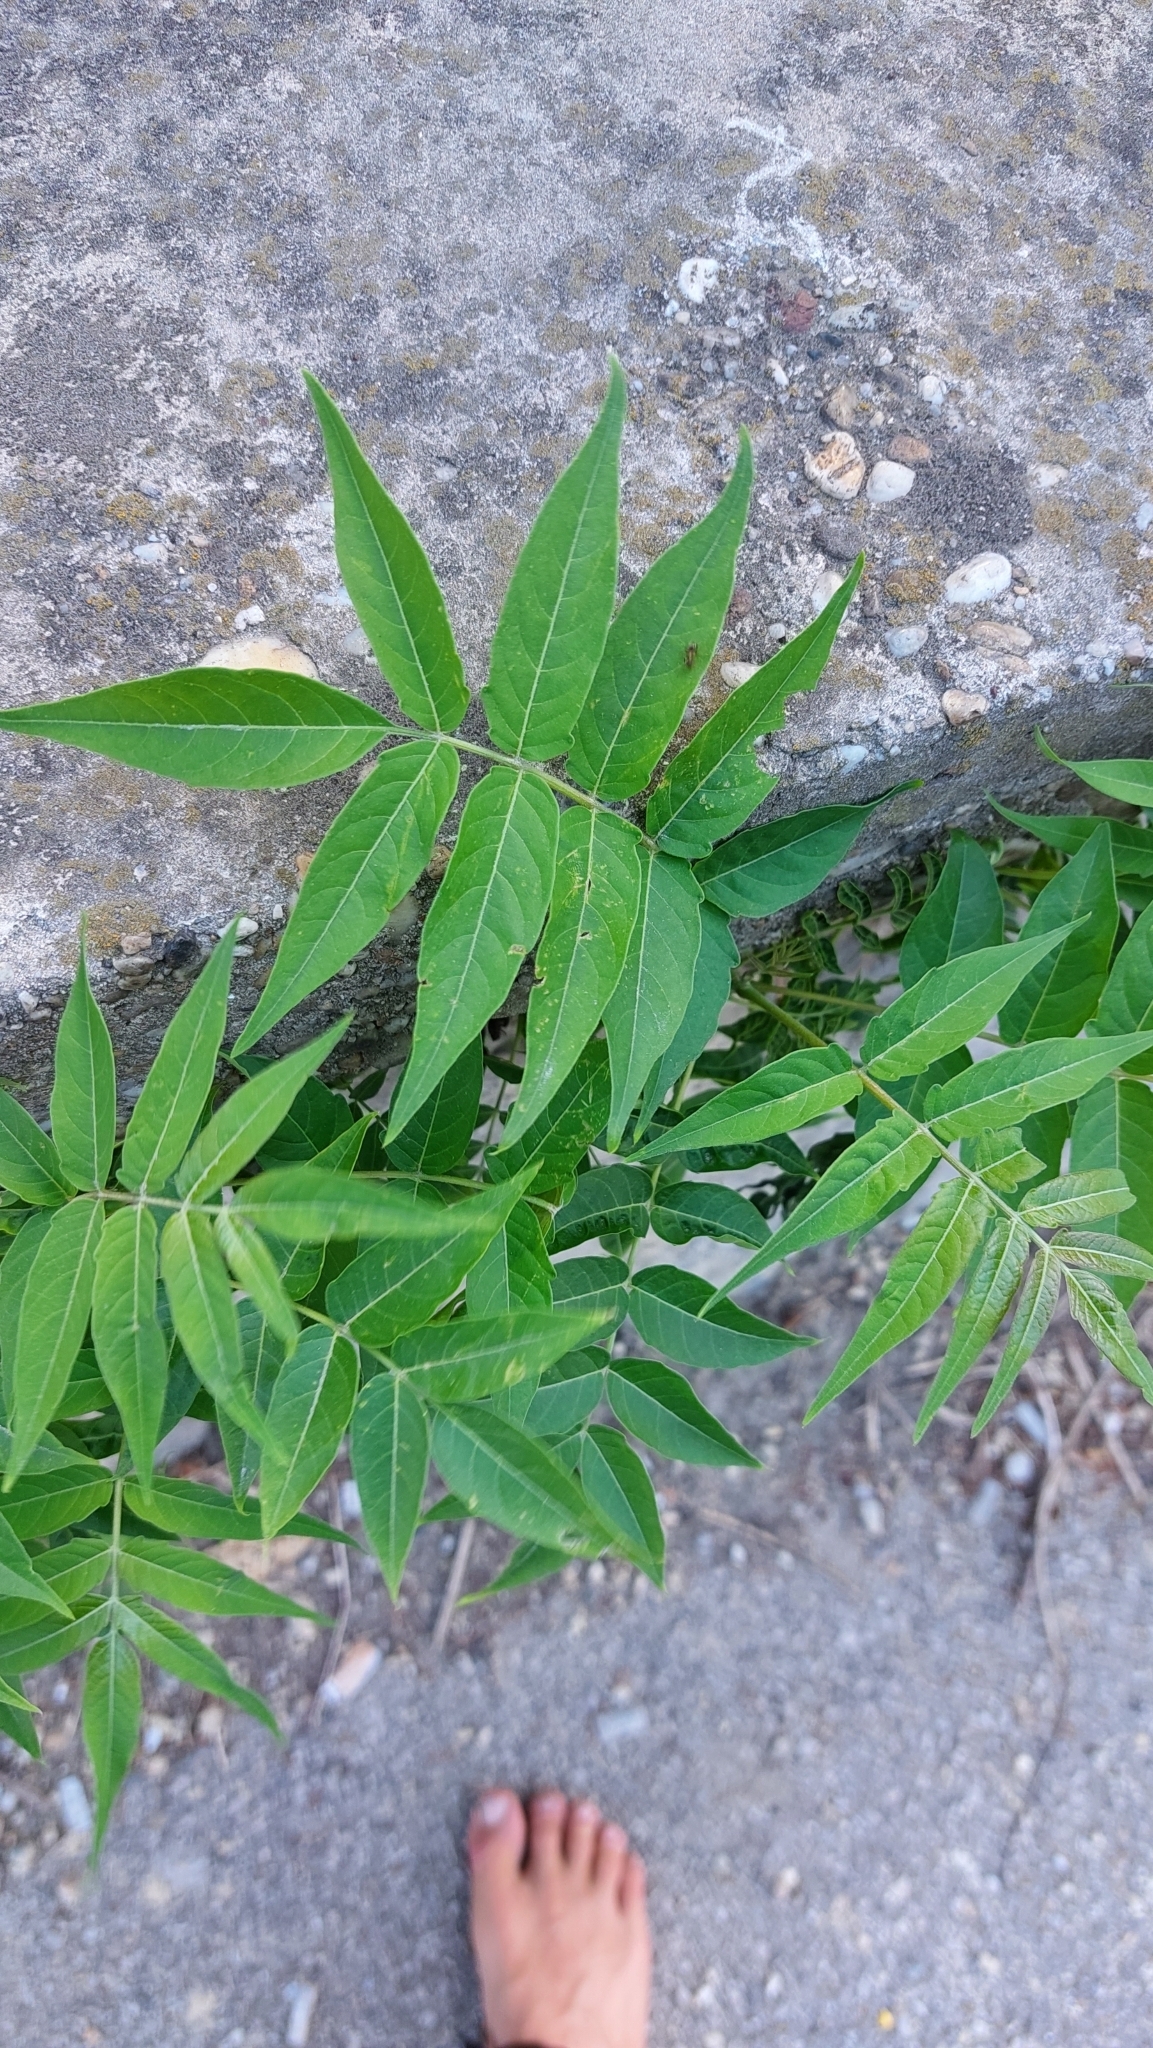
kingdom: Plantae
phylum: Tracheophyta
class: Magnoliopsida
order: Sapindales
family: Simaroubaceae
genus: Ailanthus
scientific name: Ailanthus altissima
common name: Tree-of-heaven
